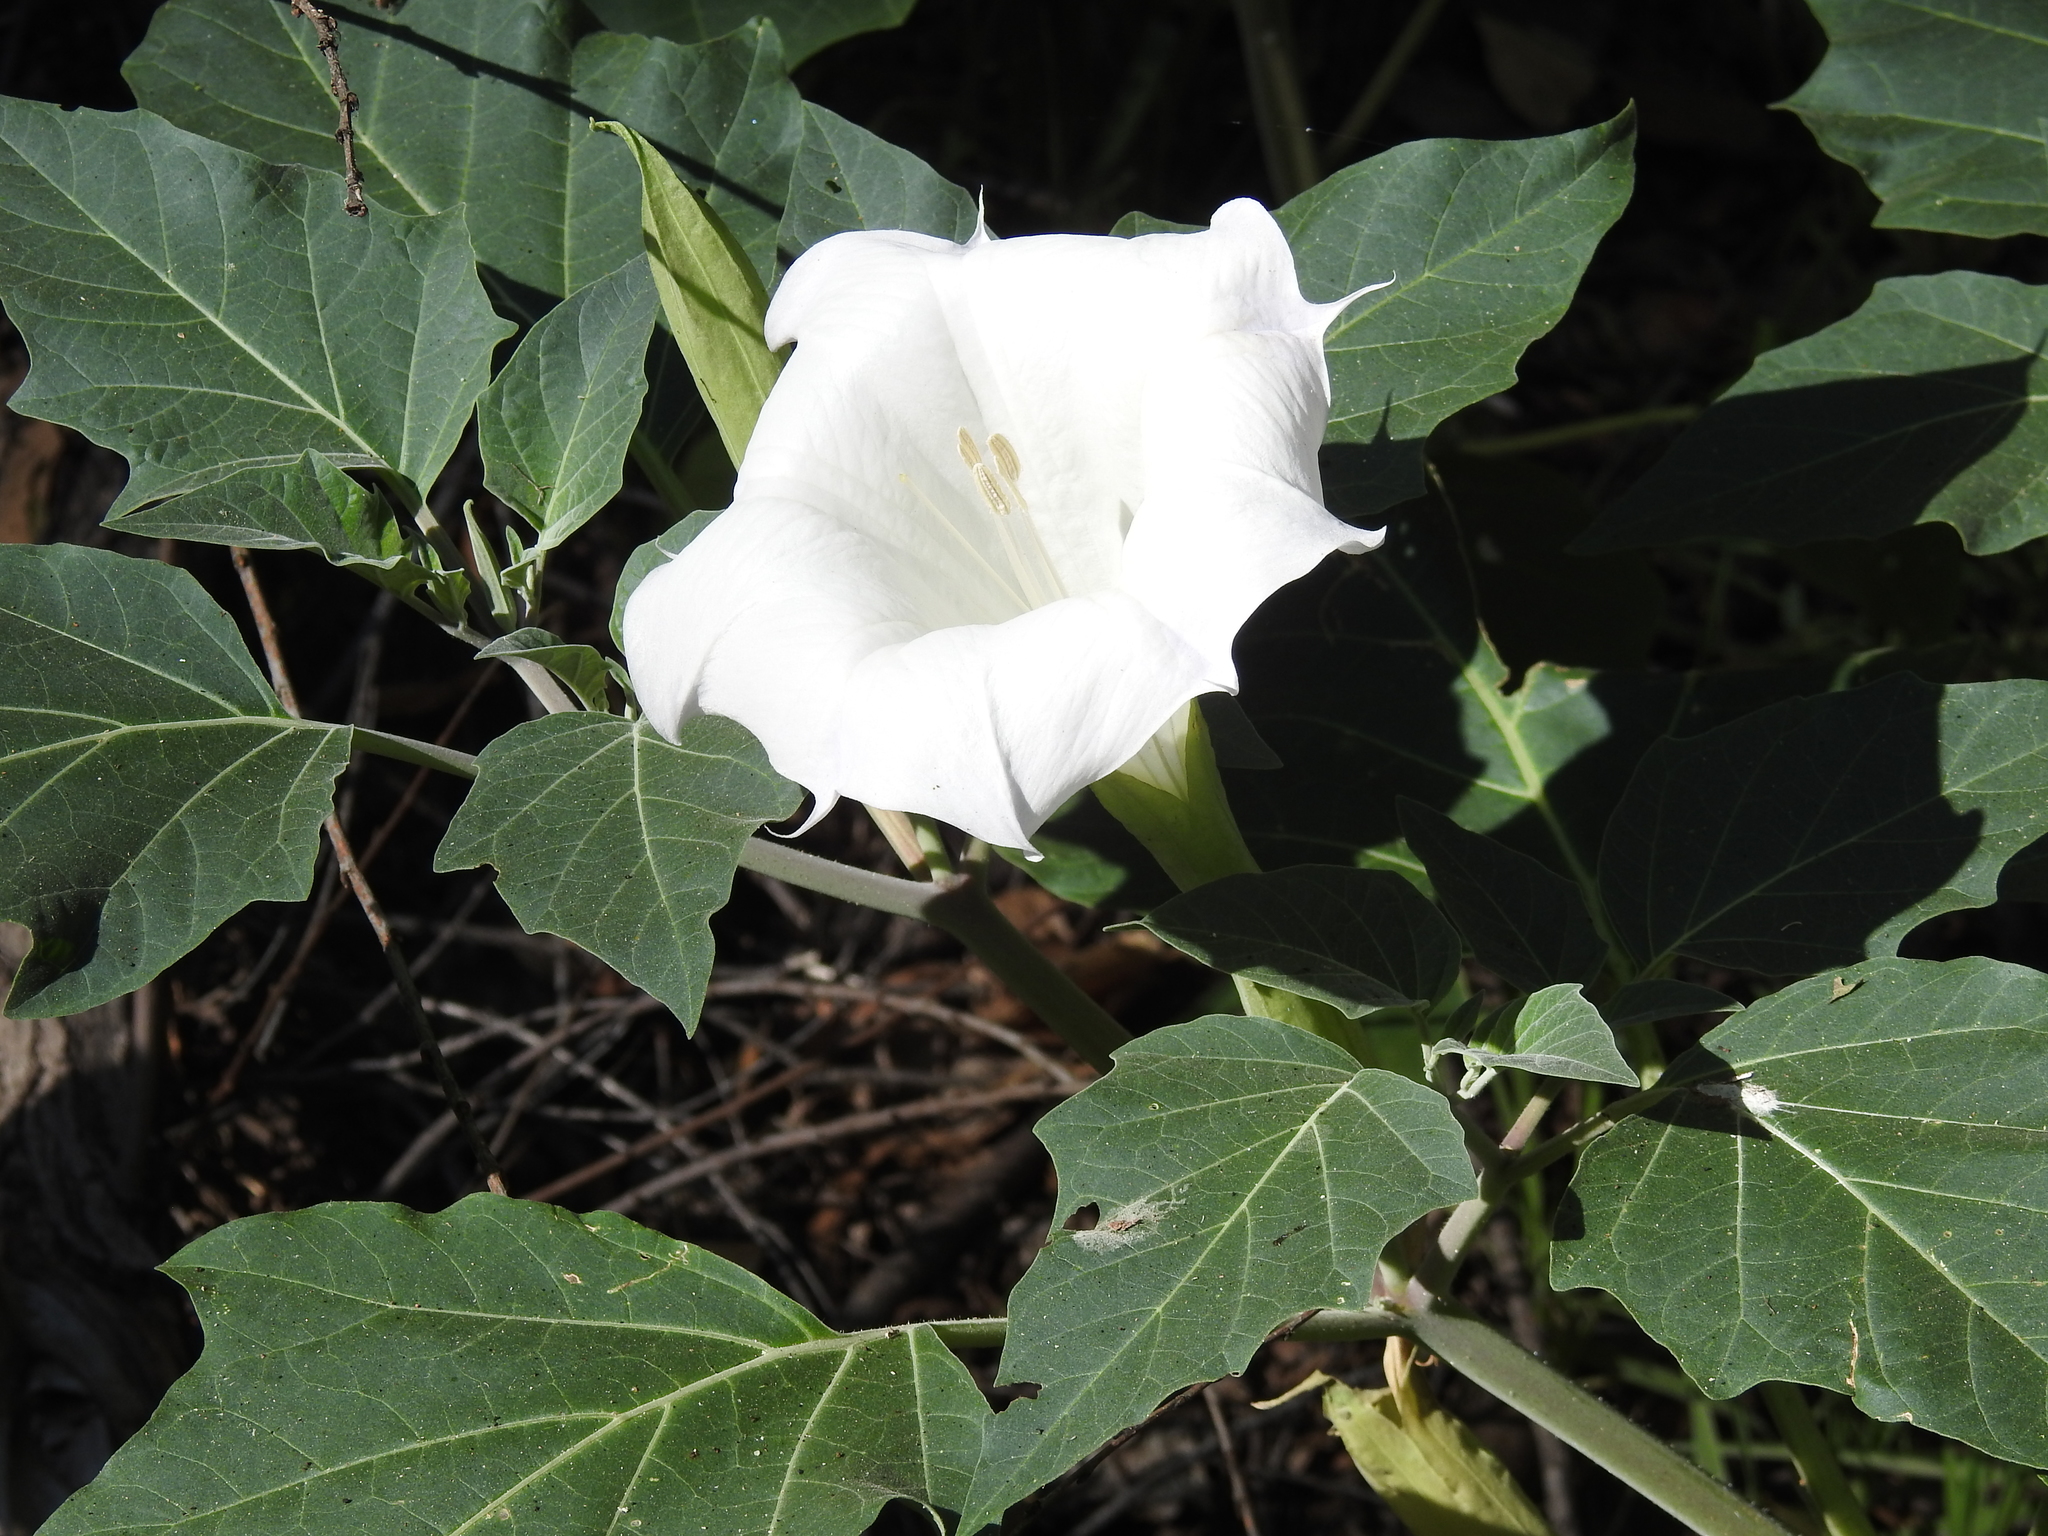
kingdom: Plantae
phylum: Tracheophyta
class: Magnoliopsida
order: Solanales
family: Solanaceae
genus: Datura
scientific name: Datura wrightii
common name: Sacred thorn-apple
